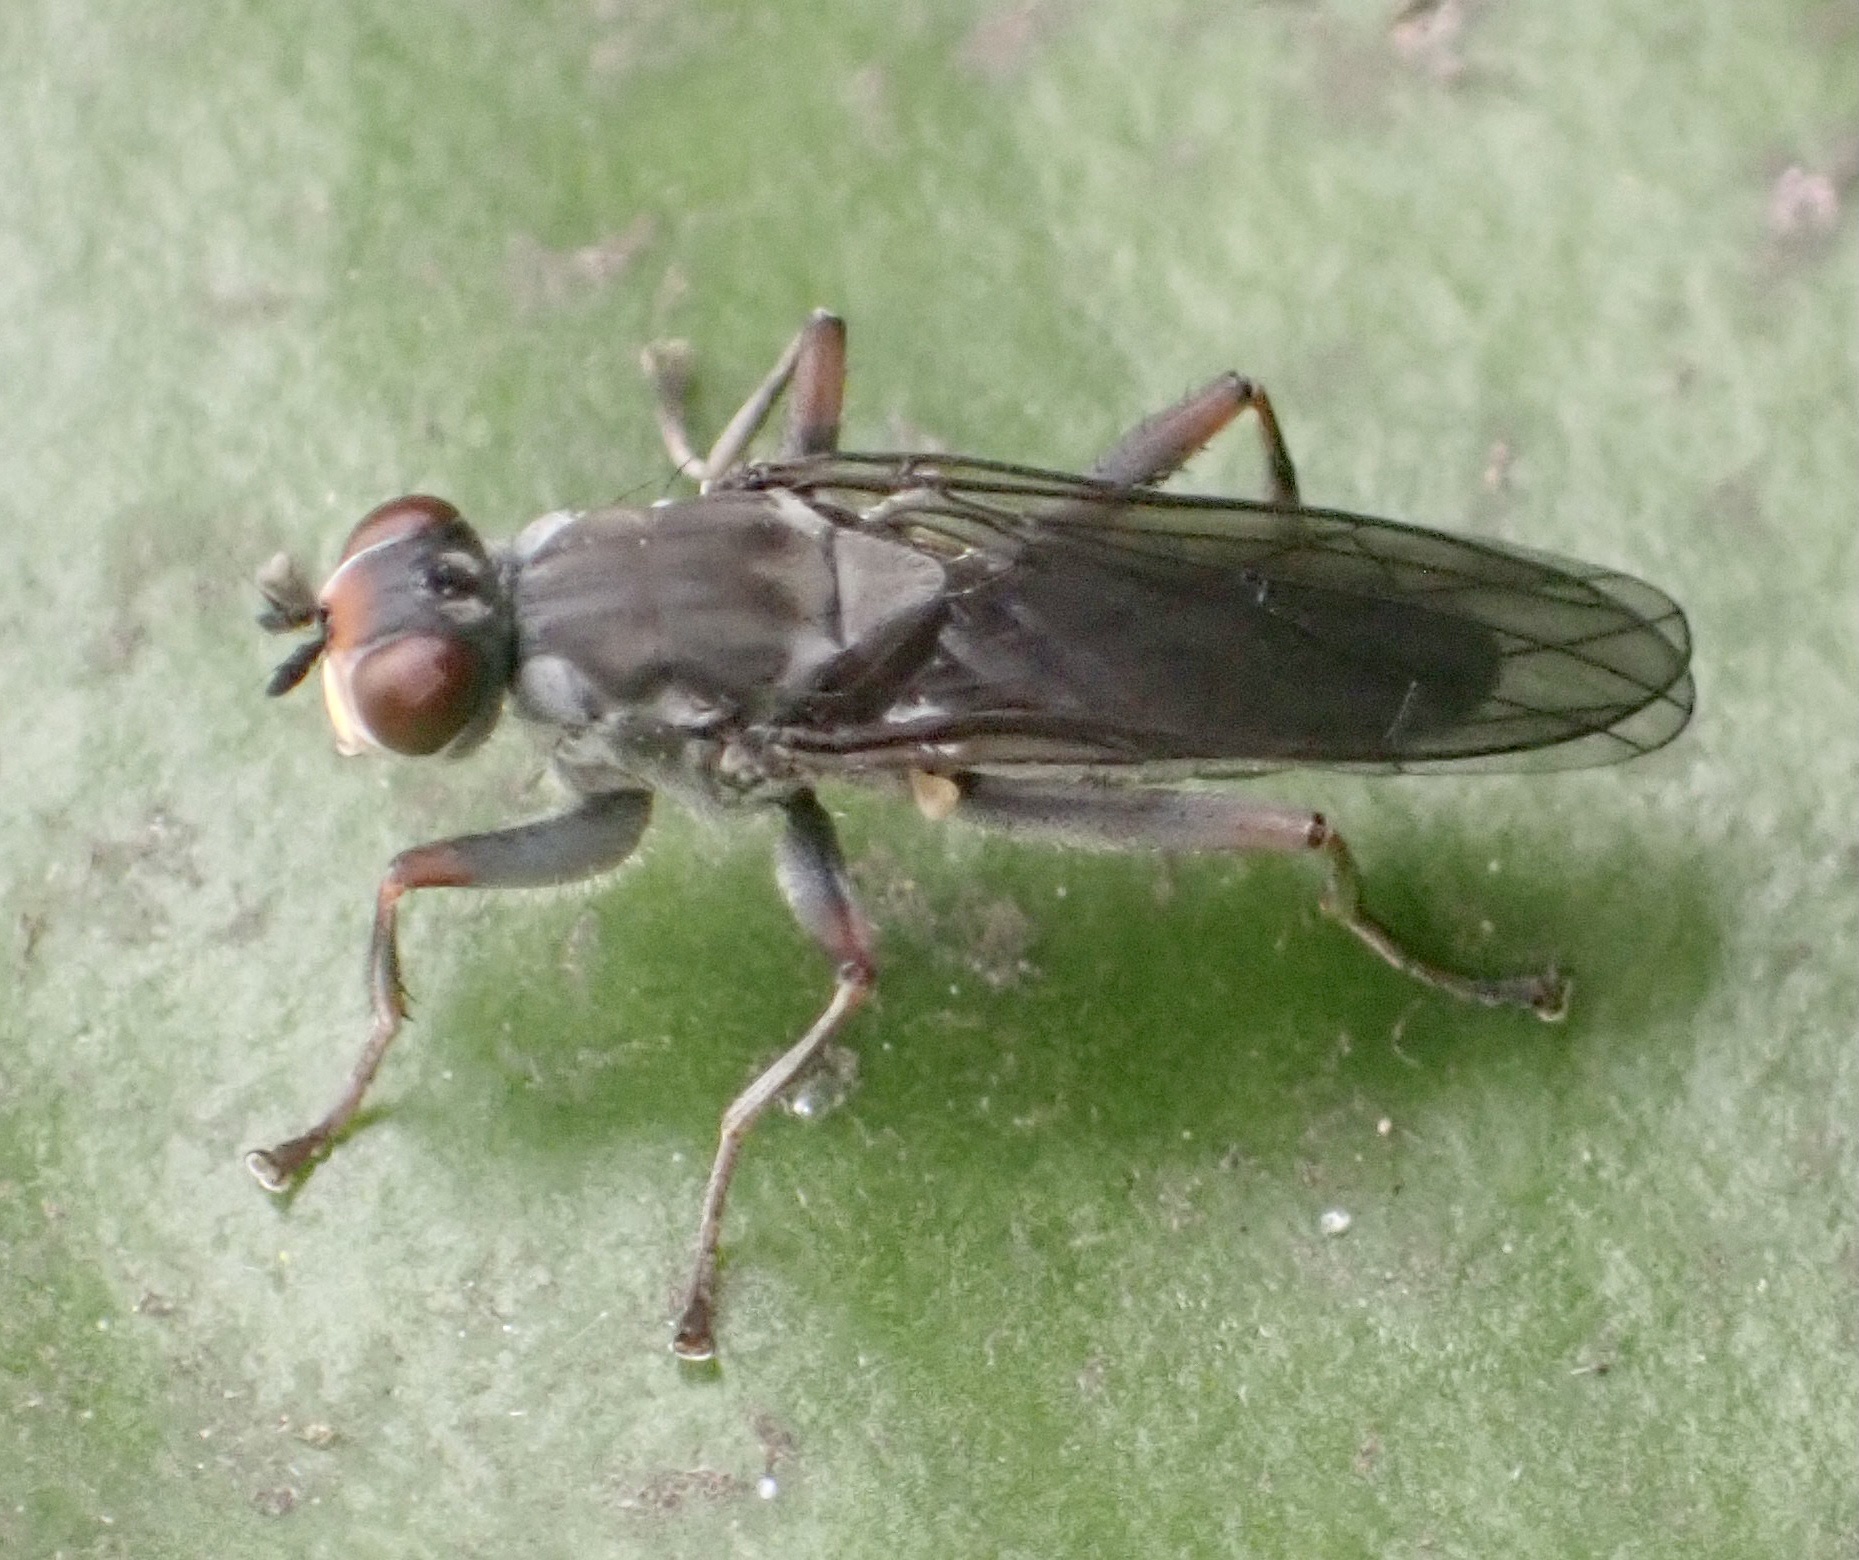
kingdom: Animalia
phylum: Arthropoda
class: Insecta
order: Diptera
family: Scathophagidae
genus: Hydromyza
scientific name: Hydromyza livens
